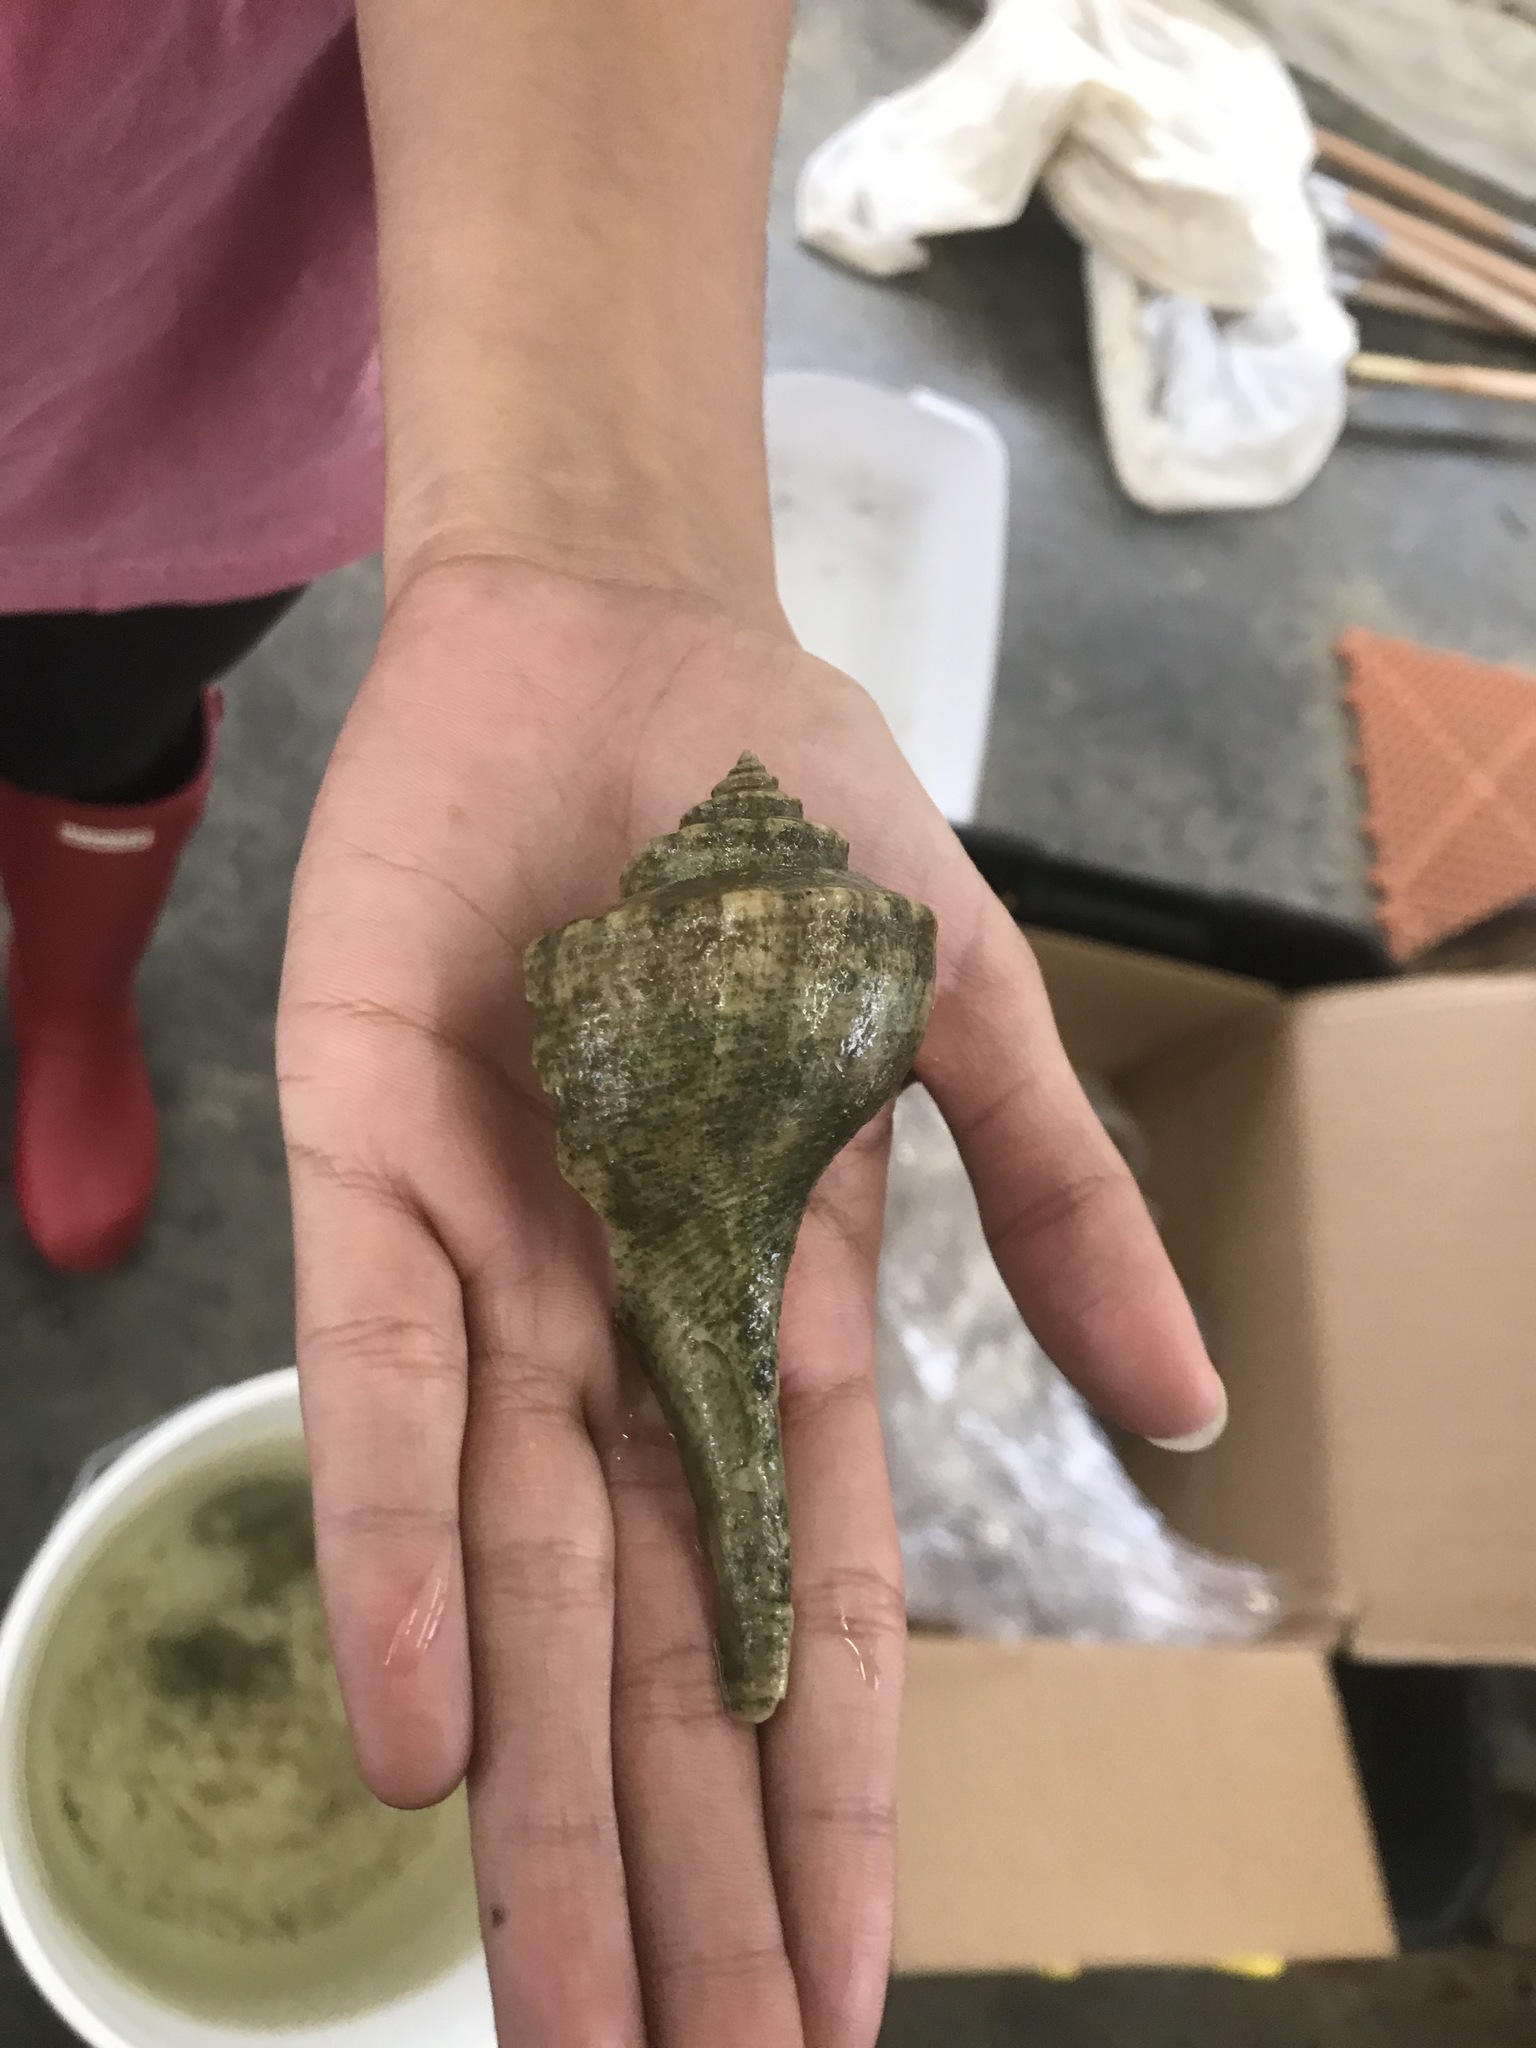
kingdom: Animalia
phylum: Arthropoda
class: Malacostraca
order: Decapoda
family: Diogenidae
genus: Clibanarius
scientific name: Clibanarius vittatus
